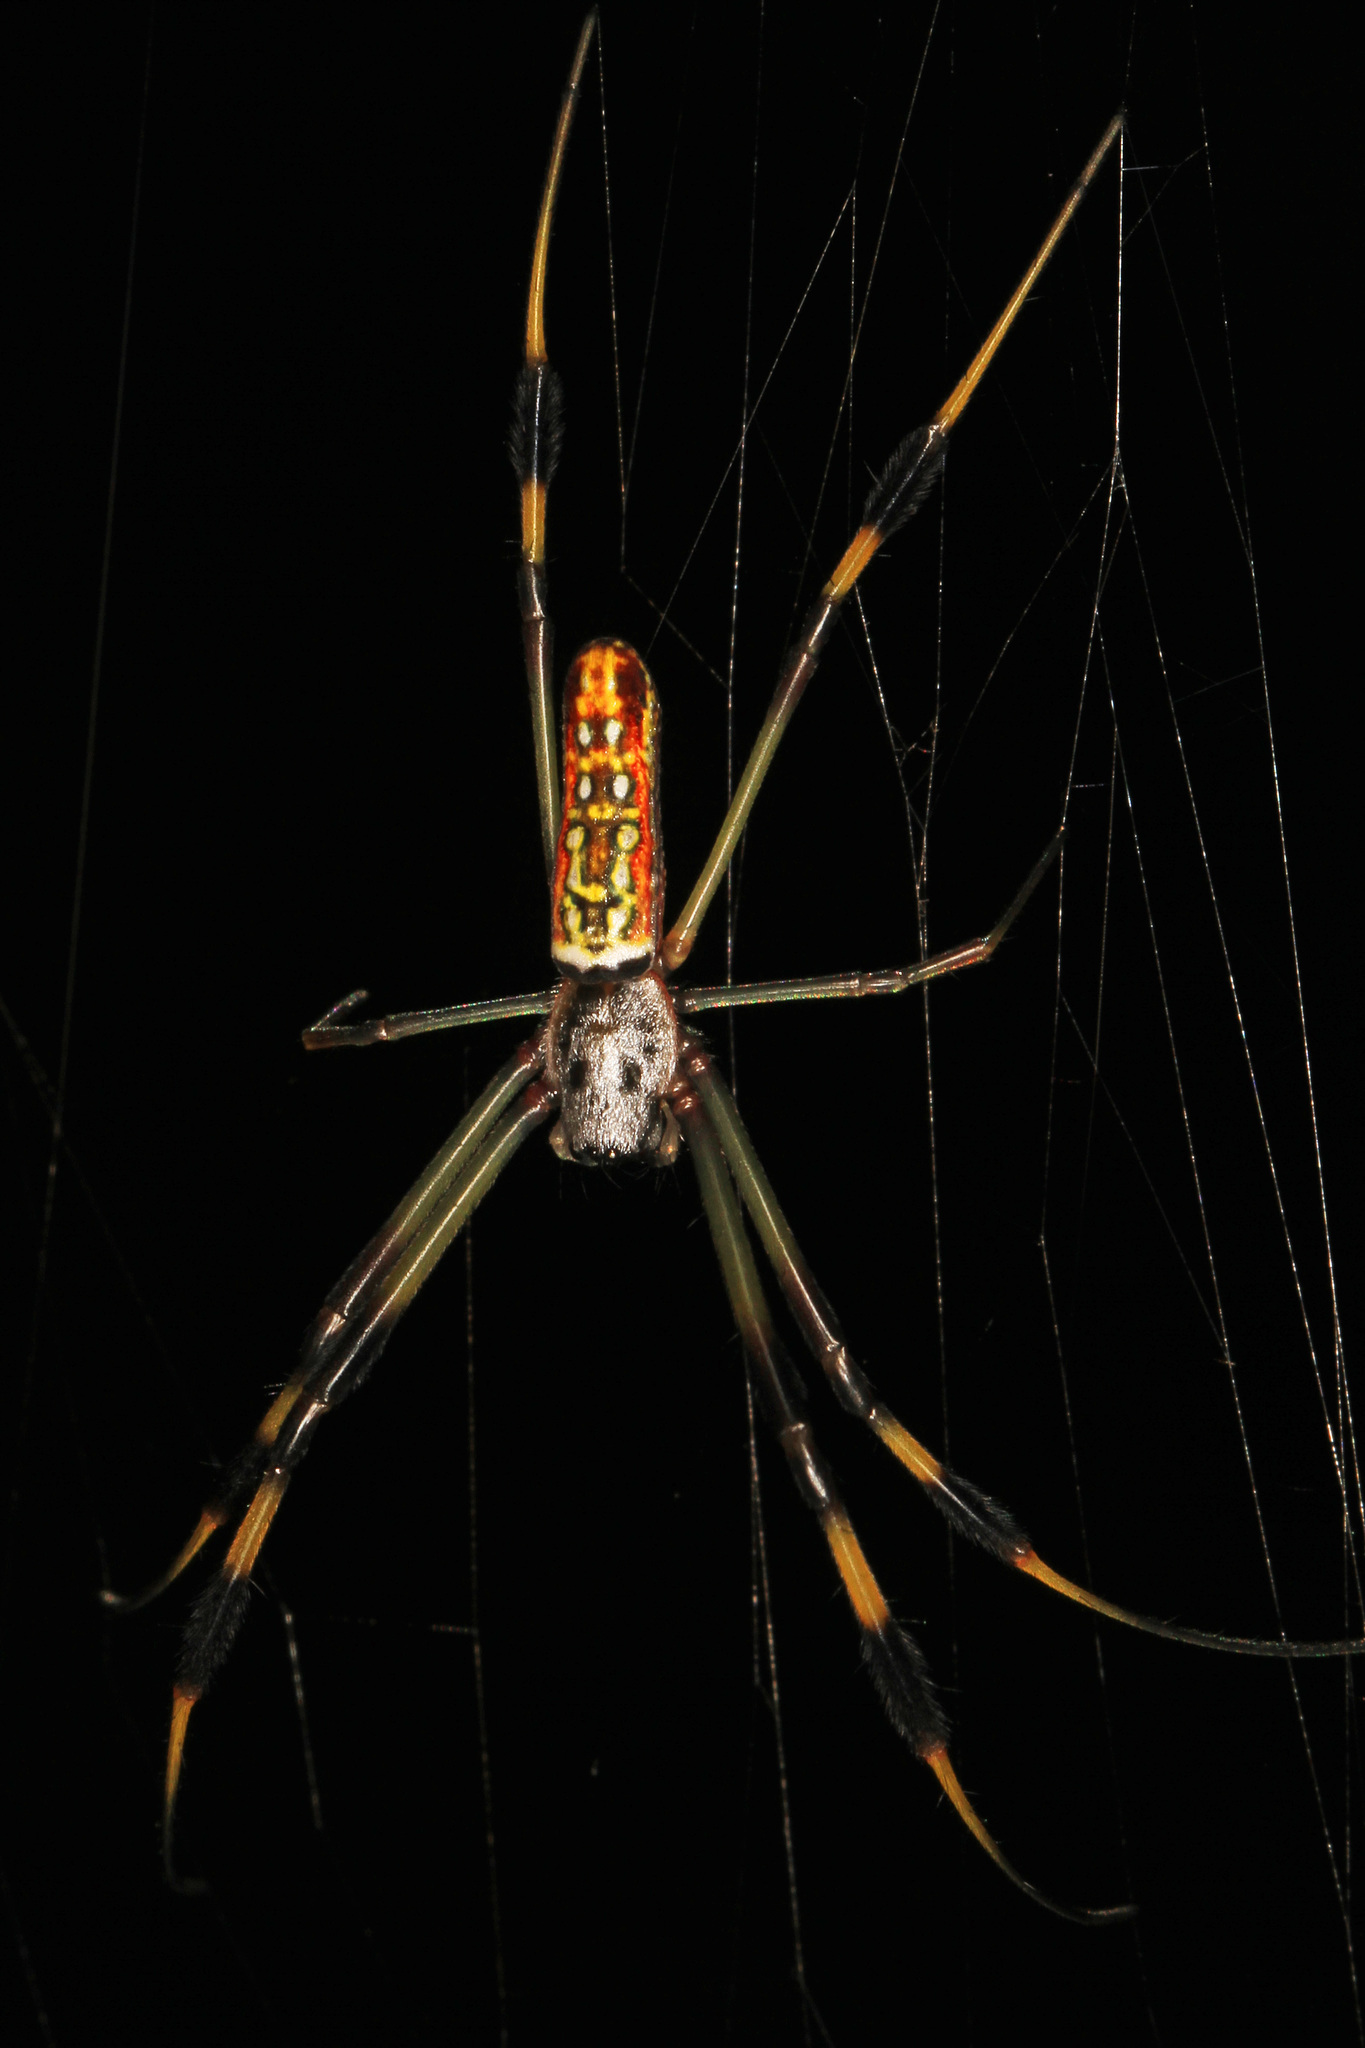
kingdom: Animalia
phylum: Arthropoda
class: Arachnida
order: Araneae
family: Araneidae
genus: Trichonephila
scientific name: Trichonephila clavipes
